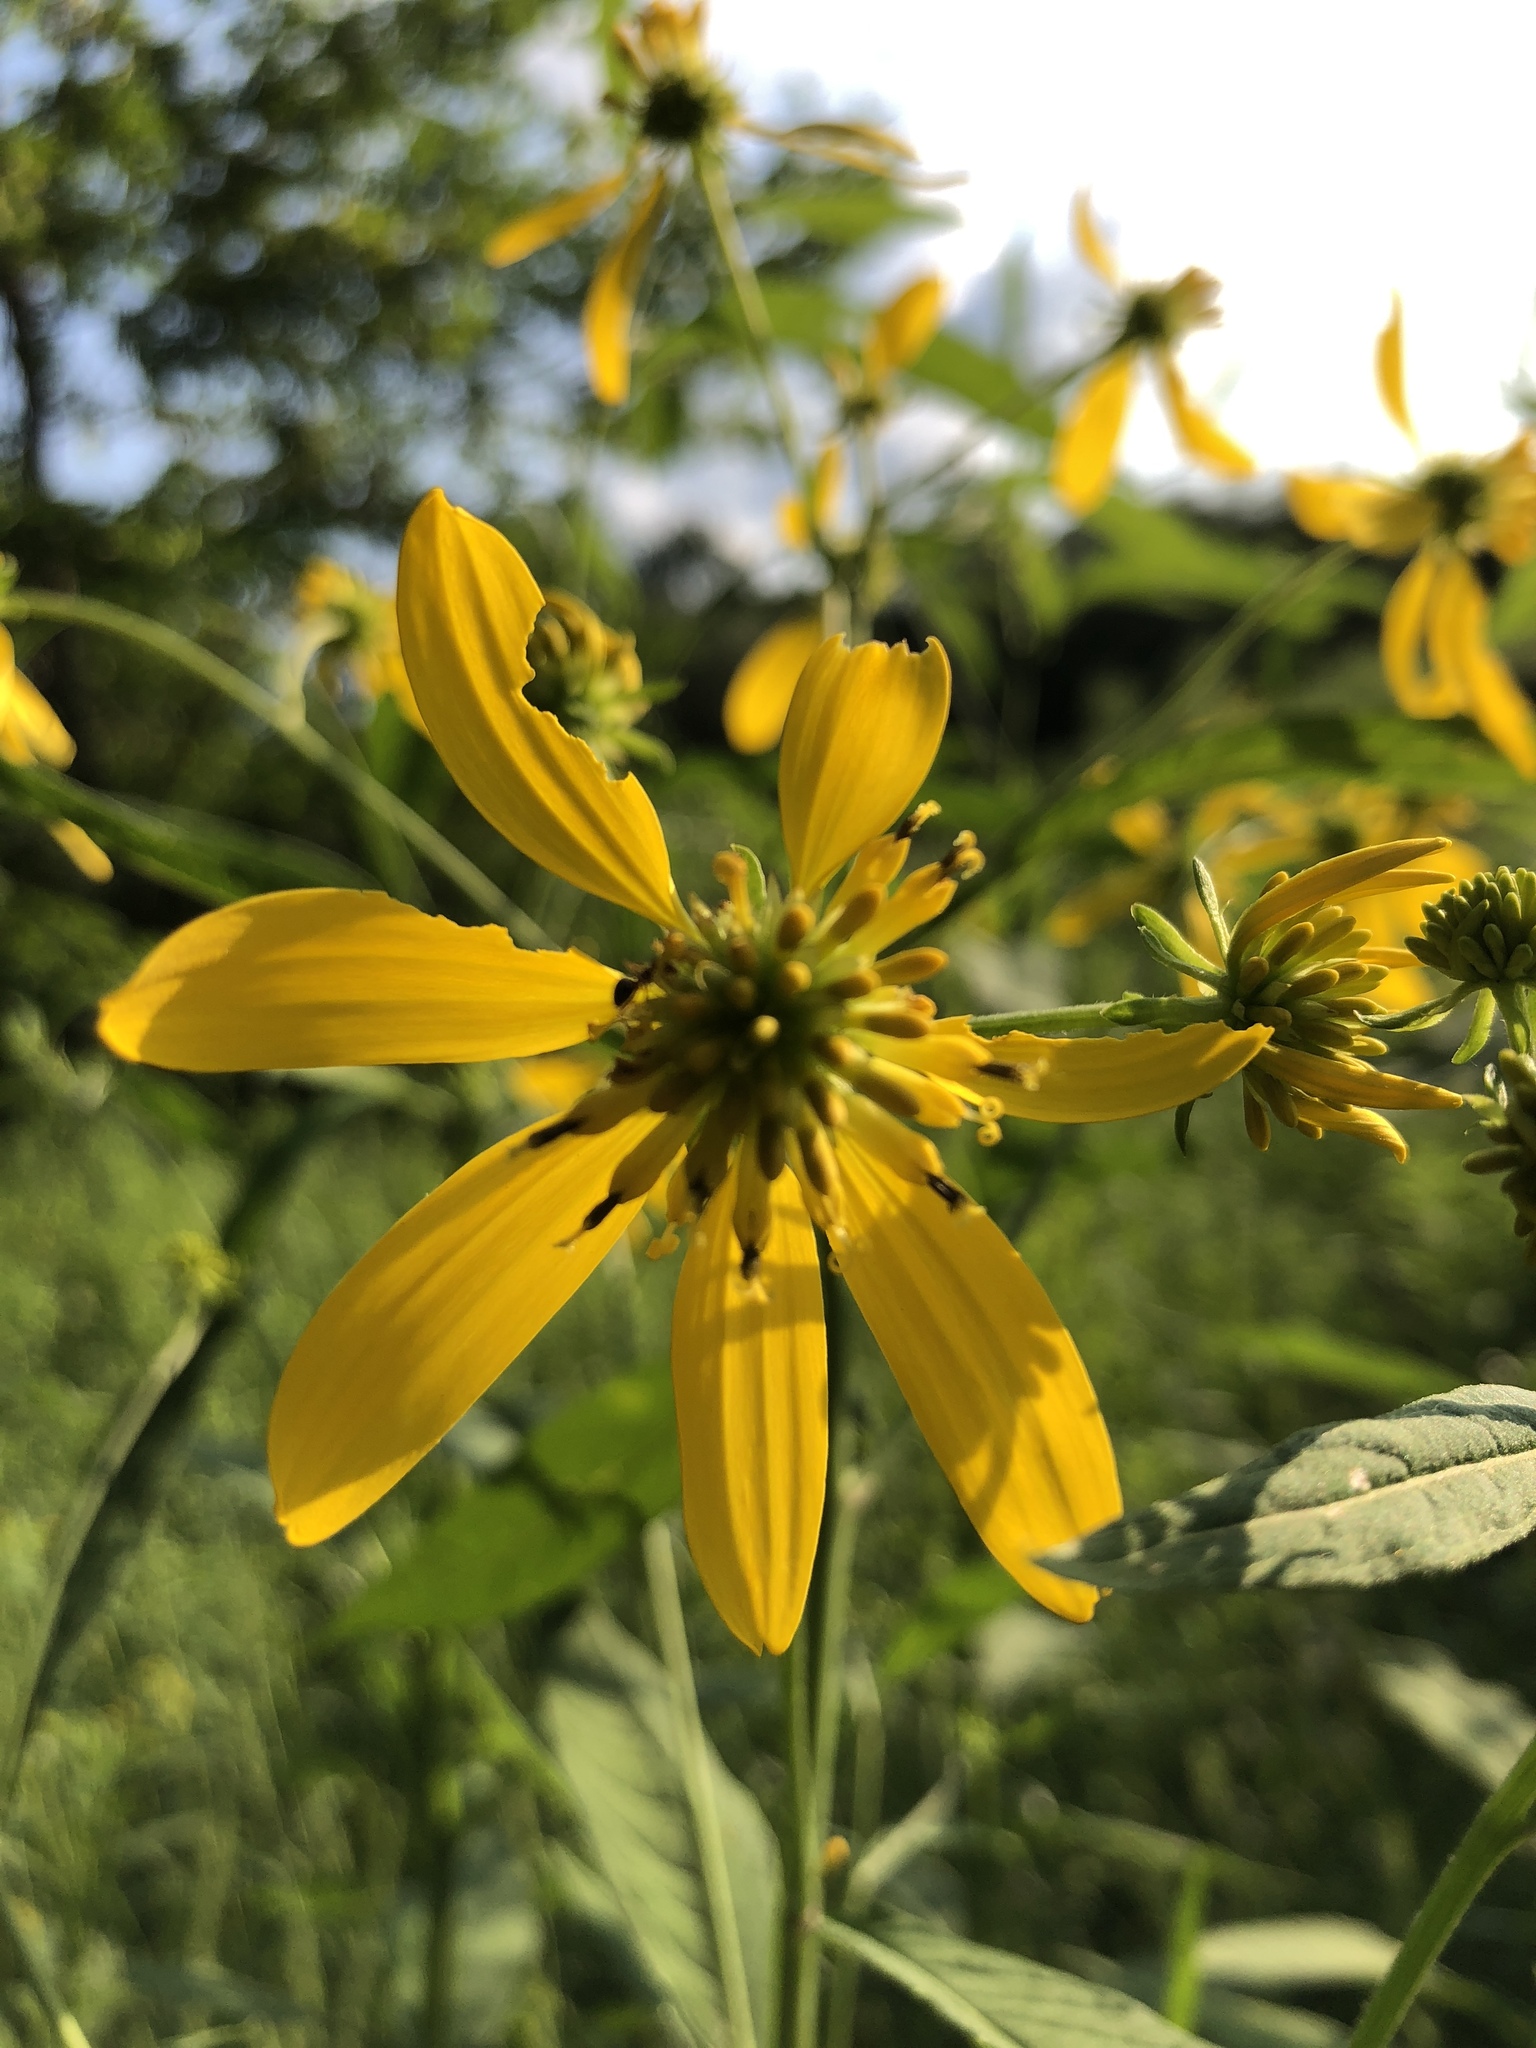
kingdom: Plantae
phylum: Tracheophyta
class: Magnoliopsida
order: Asterales
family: Asteraceae
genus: Verbesina
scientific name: Verbesina alternifolia
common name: Wingstem
